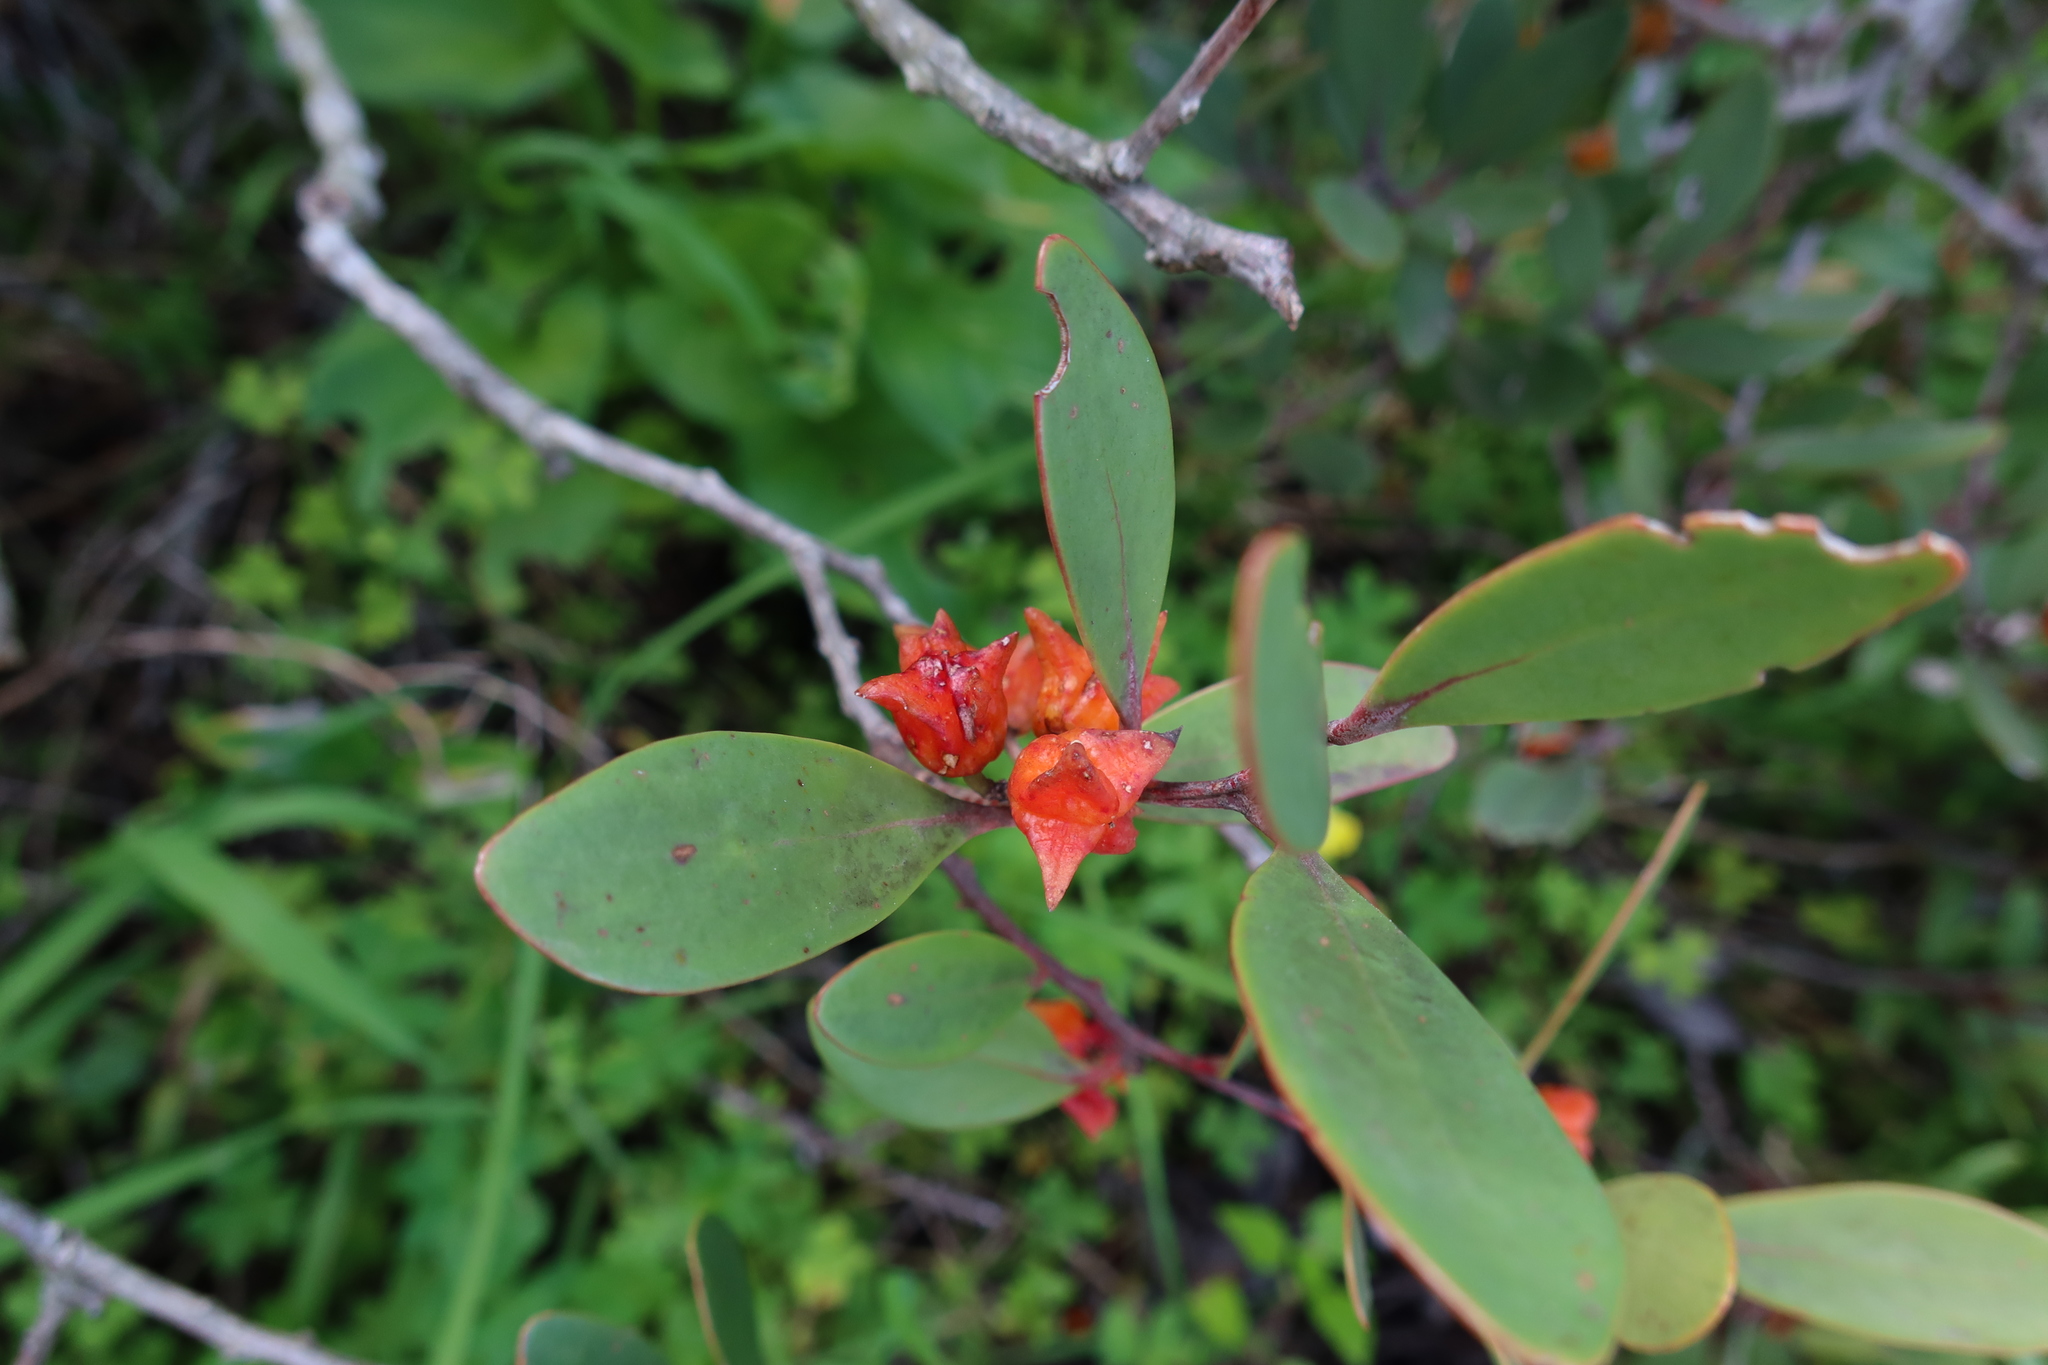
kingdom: Plantae
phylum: Tracheophyta
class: Magnoliopsida
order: Celastrales
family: Celastraceae
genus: Pterocelastrus
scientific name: Pterocelastrus tricuspidatus
